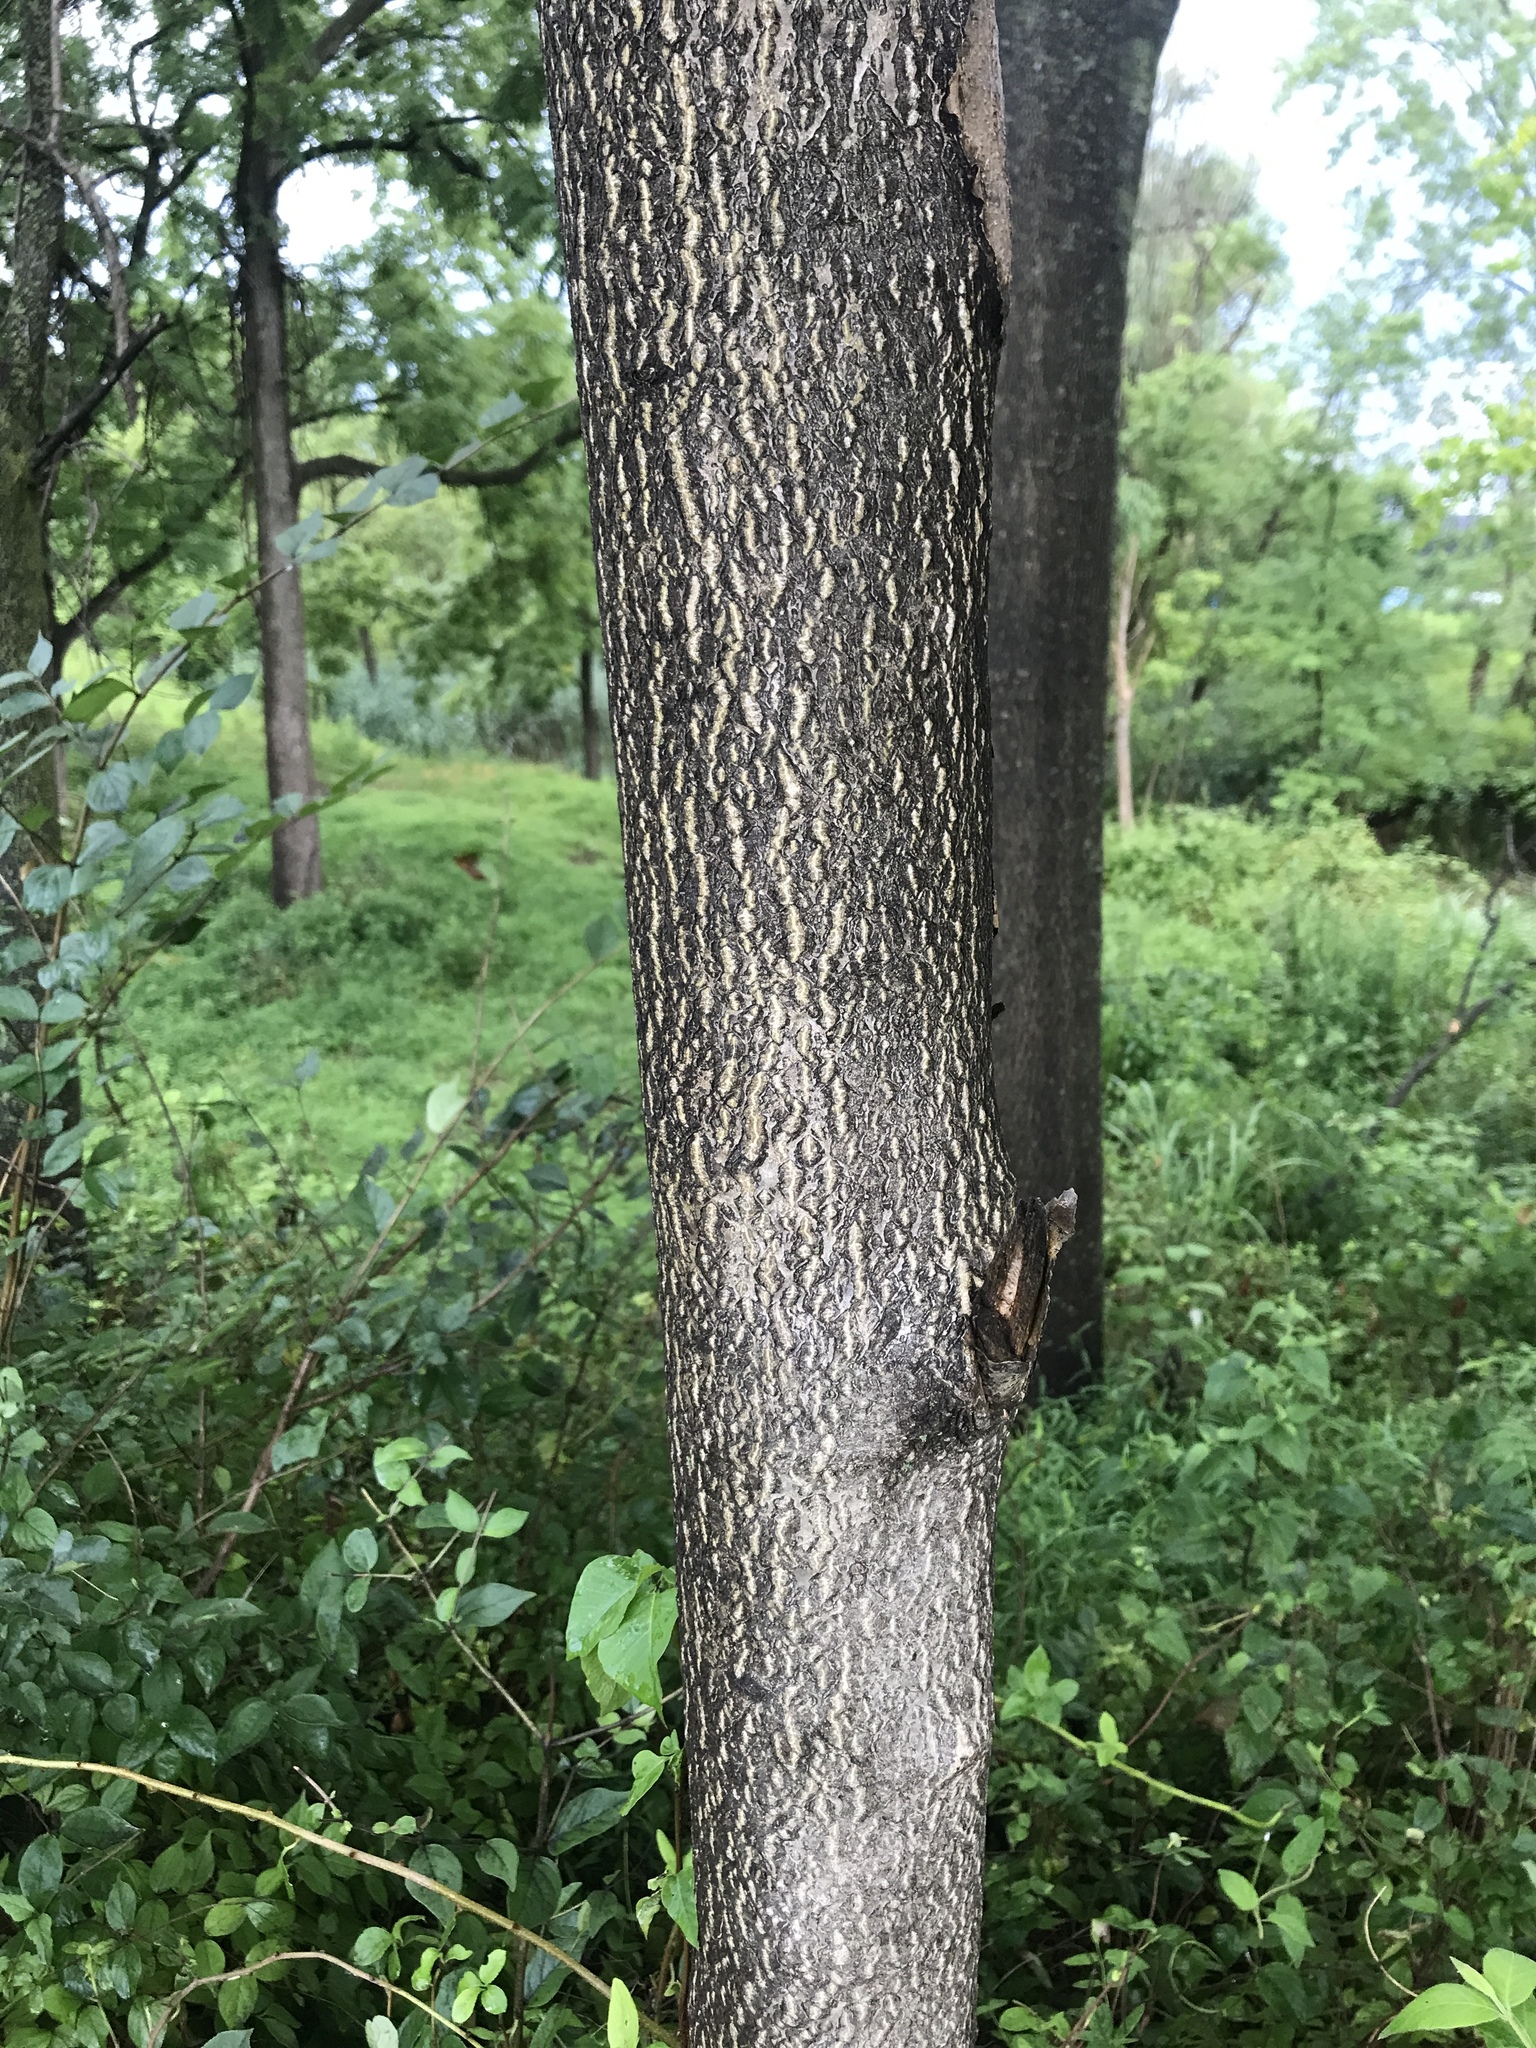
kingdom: Plantae
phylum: Tracheophyta
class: Magnoliopsida
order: Sapindales
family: Simaroubaceae
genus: Ailanthus
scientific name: Ailanthus altissima
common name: Tree-of-heaven
